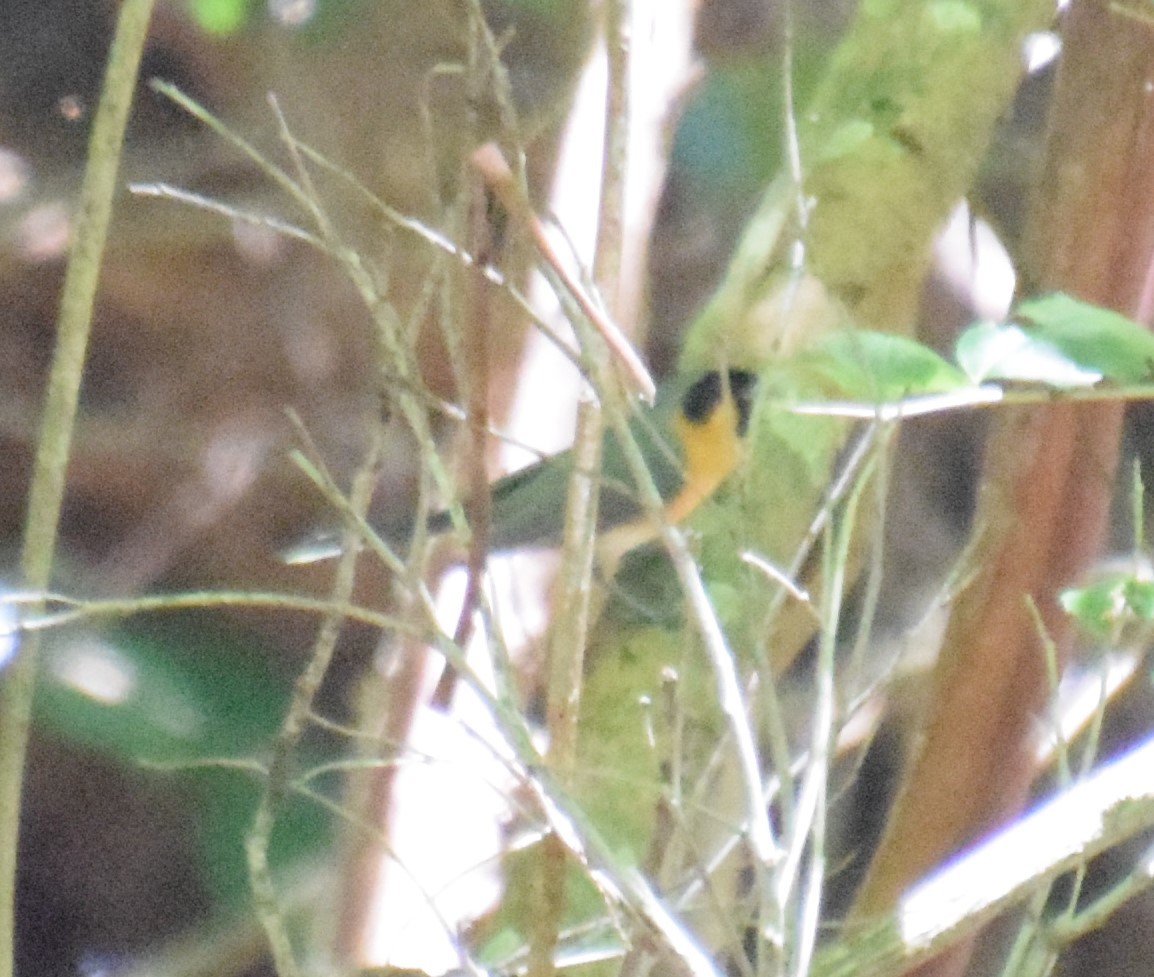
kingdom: Animalia
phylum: Chordata
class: Aves
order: Passeriformes
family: Monarchidae
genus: Symposiachrus
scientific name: Symposiachrus trivirgatus
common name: Spectacled monarch
